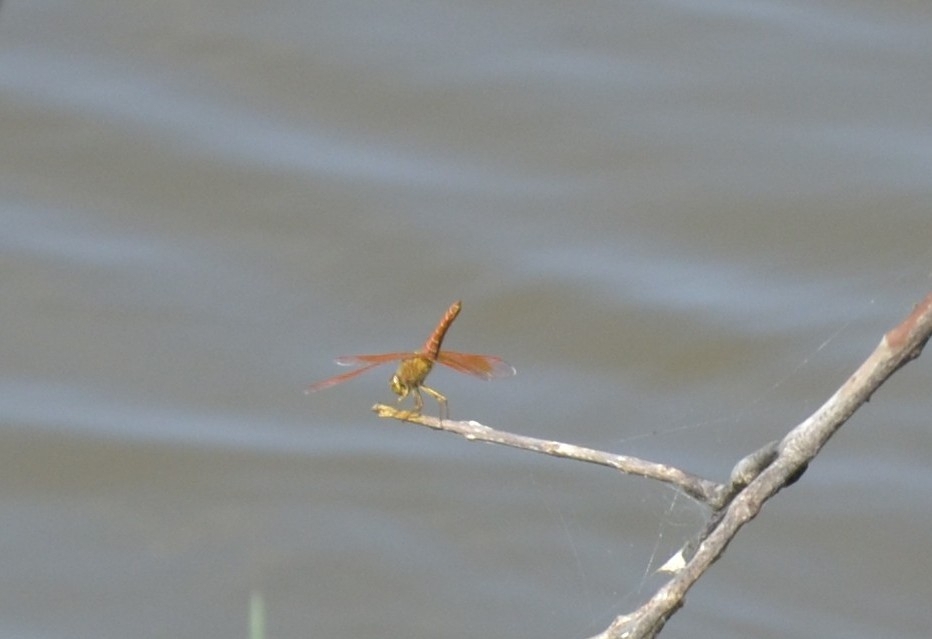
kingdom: Animalia
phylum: Arthropoda
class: Insecta
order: Odonata
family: Libellulidae
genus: Brachythemis
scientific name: Brachythemis contaminata
